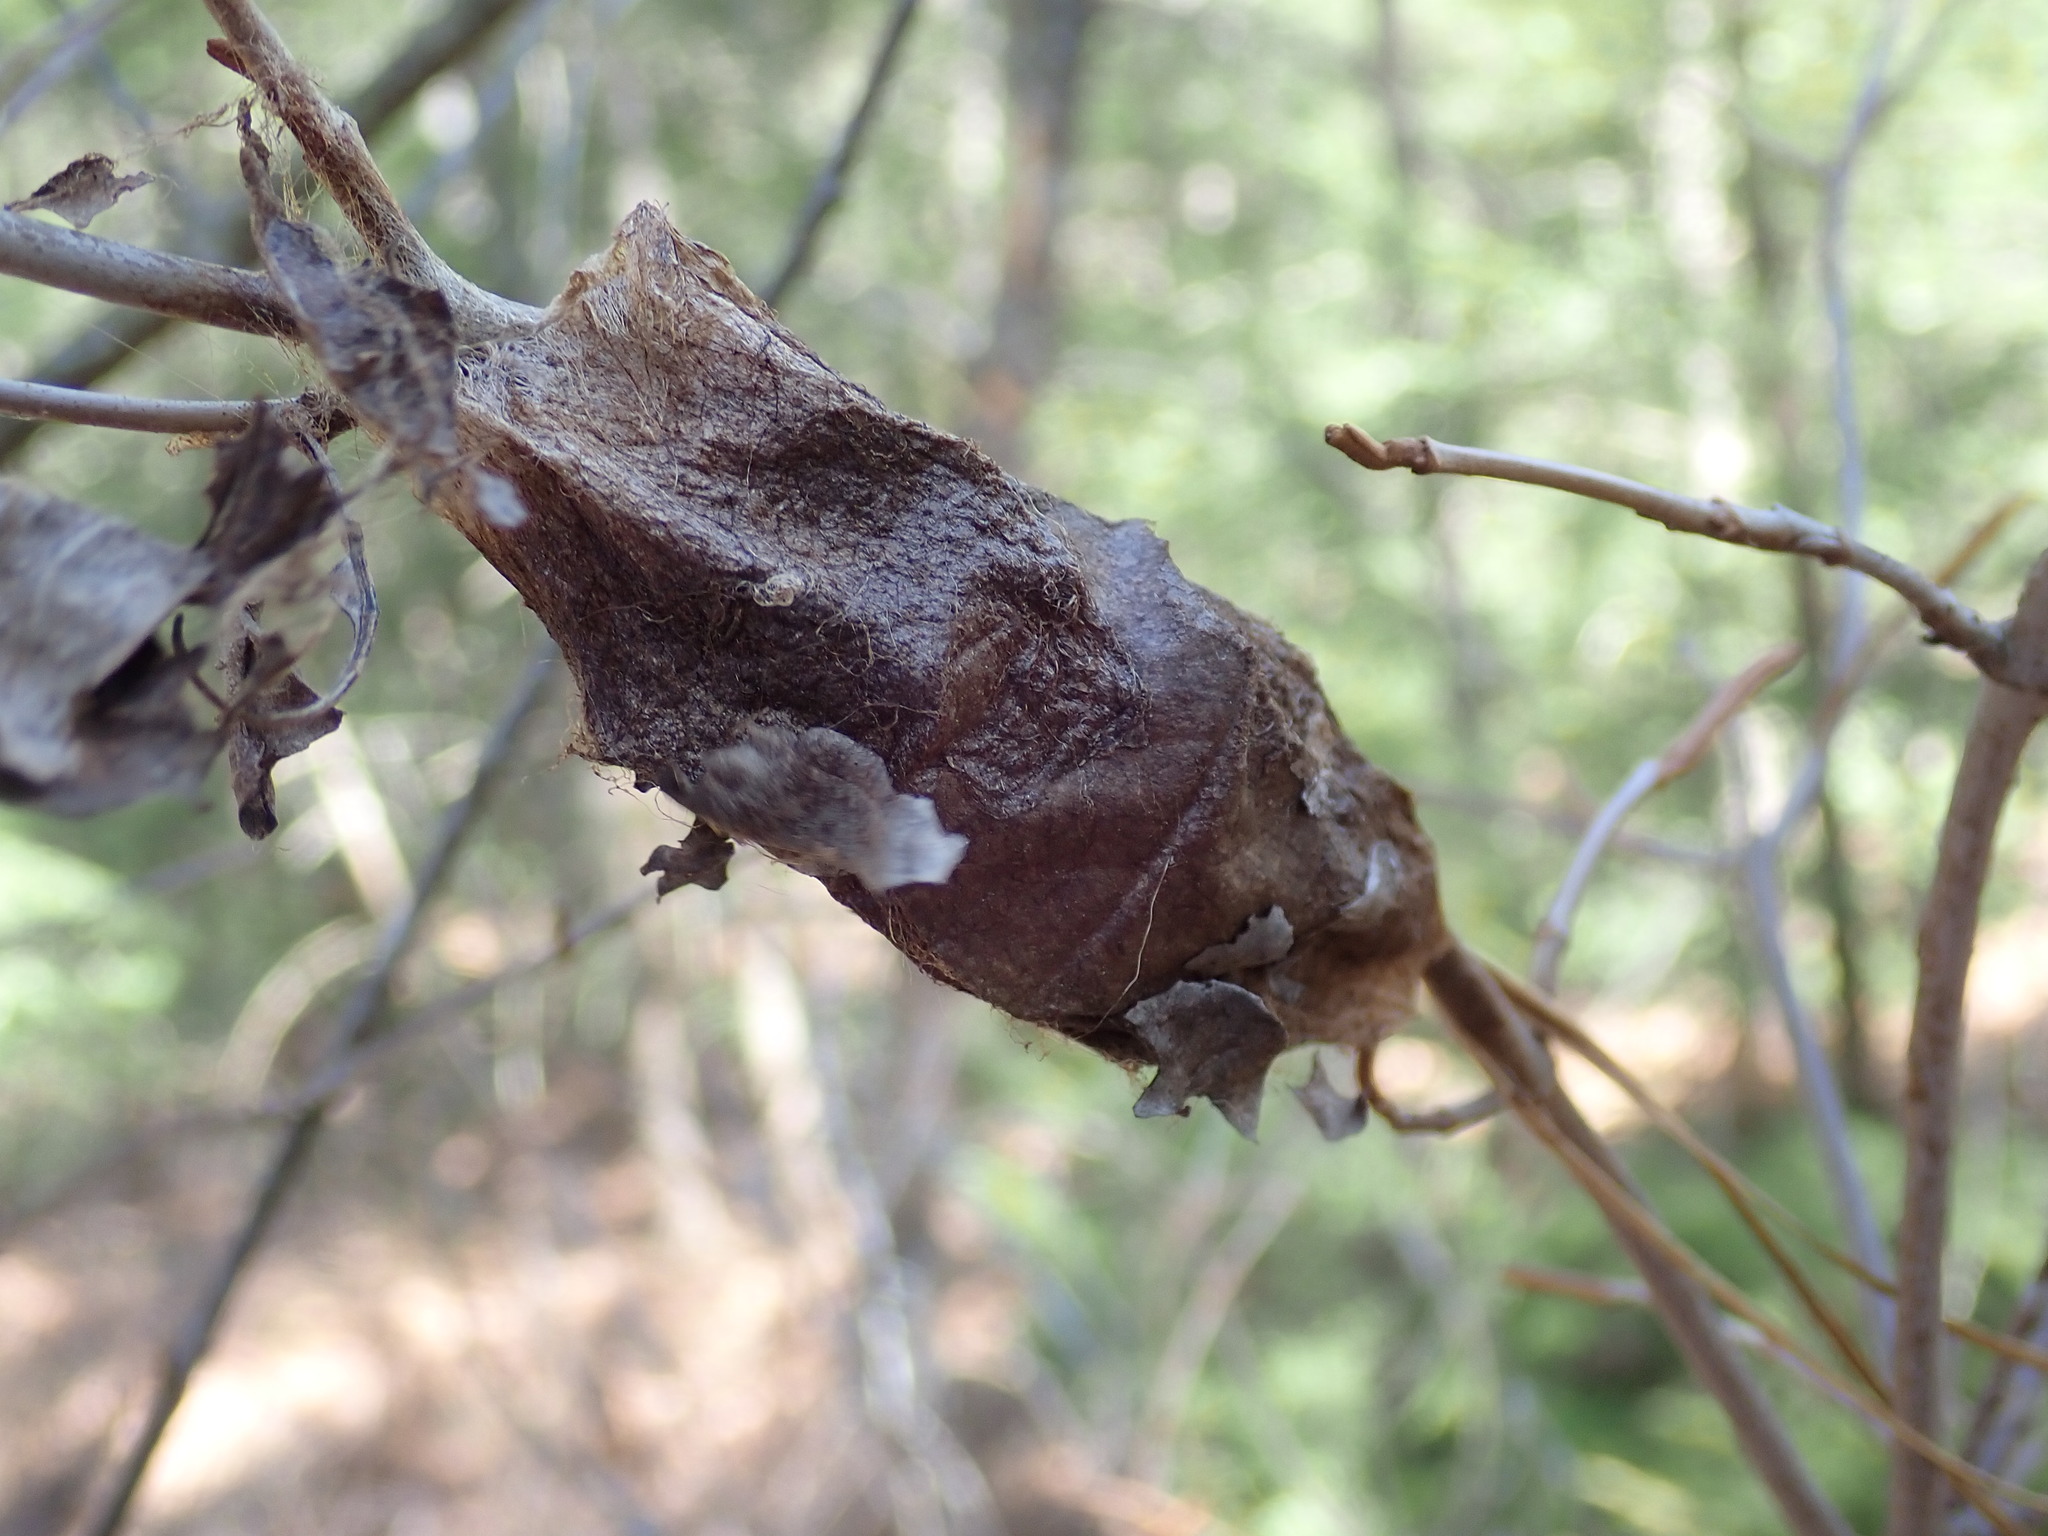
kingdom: Animalia
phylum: Arthropoda
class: Insecta
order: Lepidoptera
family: Saturniidae
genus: Hyalophora
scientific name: Hyalophora cecropia
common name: Cecropia silkmoth
